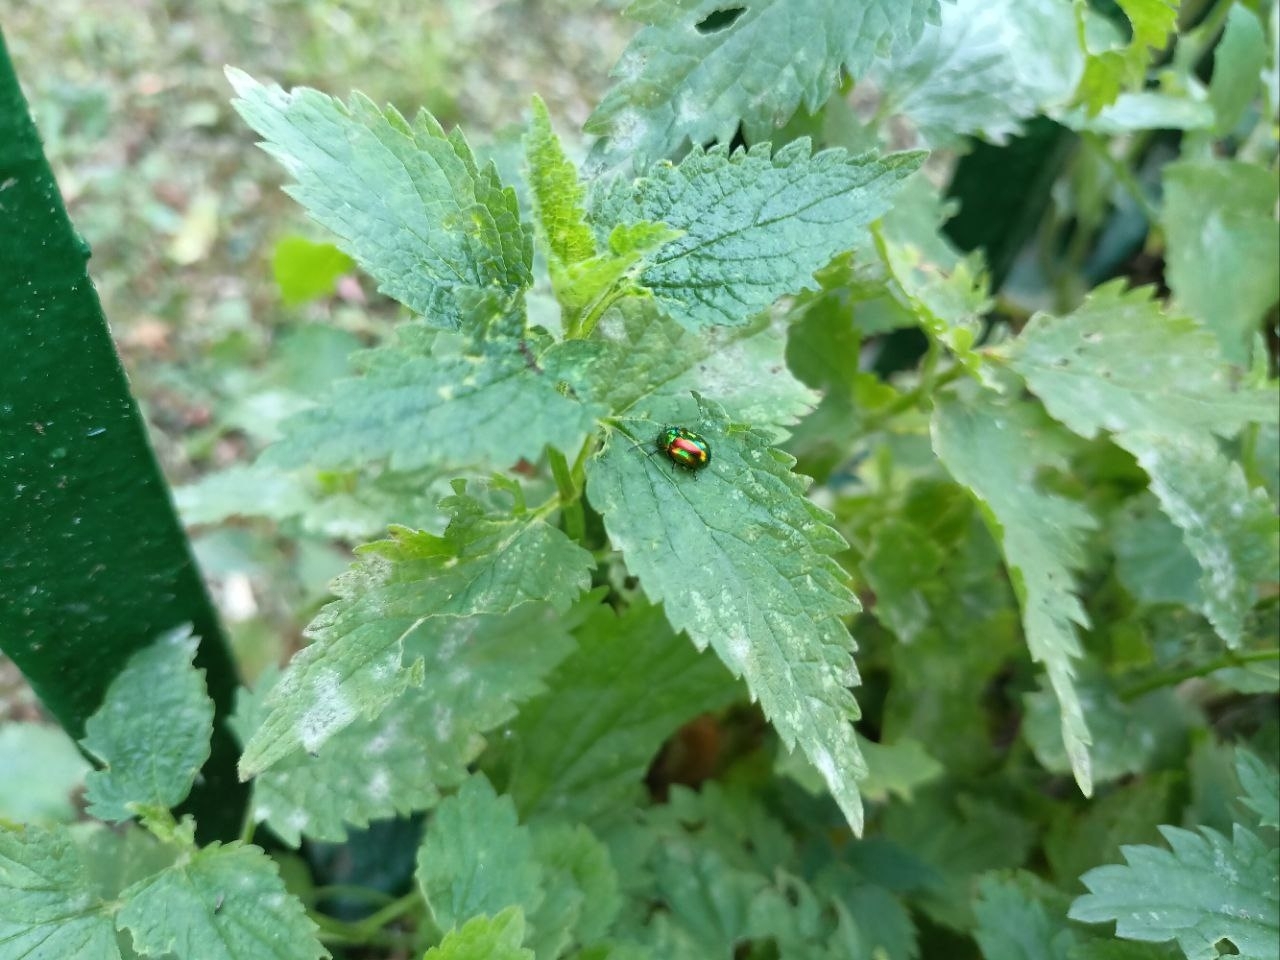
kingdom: Animalia
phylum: Arthropoda
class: Insecta
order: Coleoptera
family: Chrysomelidae
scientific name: Chrysomelidae
